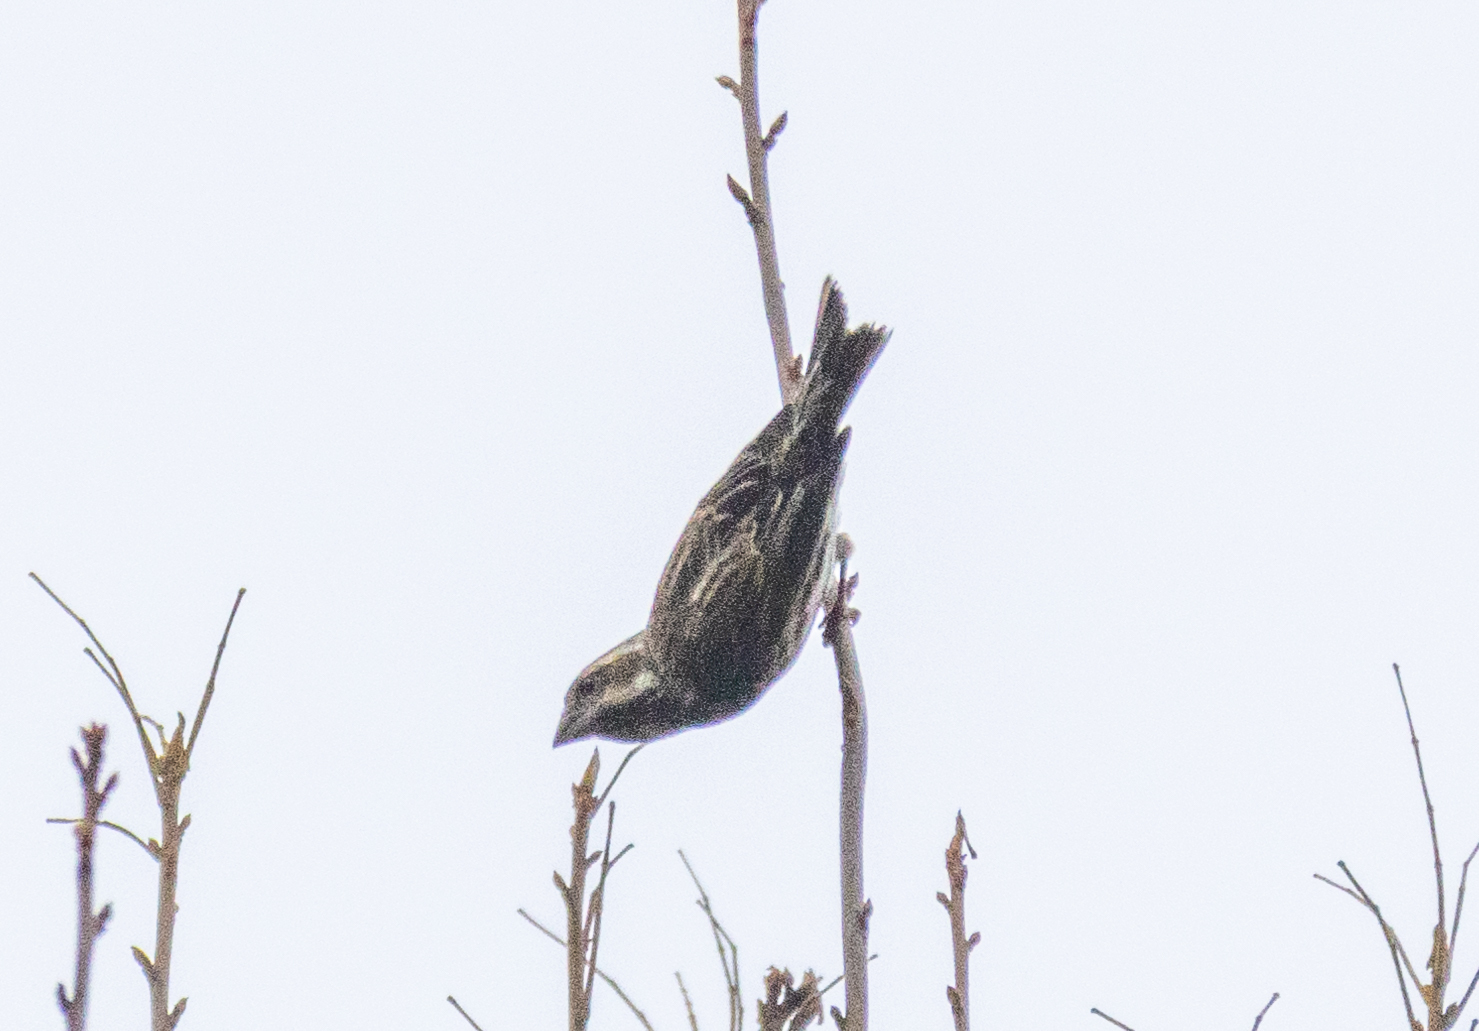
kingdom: Animalia
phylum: Chordata
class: Aves
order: Passeriformes
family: Fringillidae
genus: Haemorhous
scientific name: Haemorhous purpureus
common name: Purple finch
